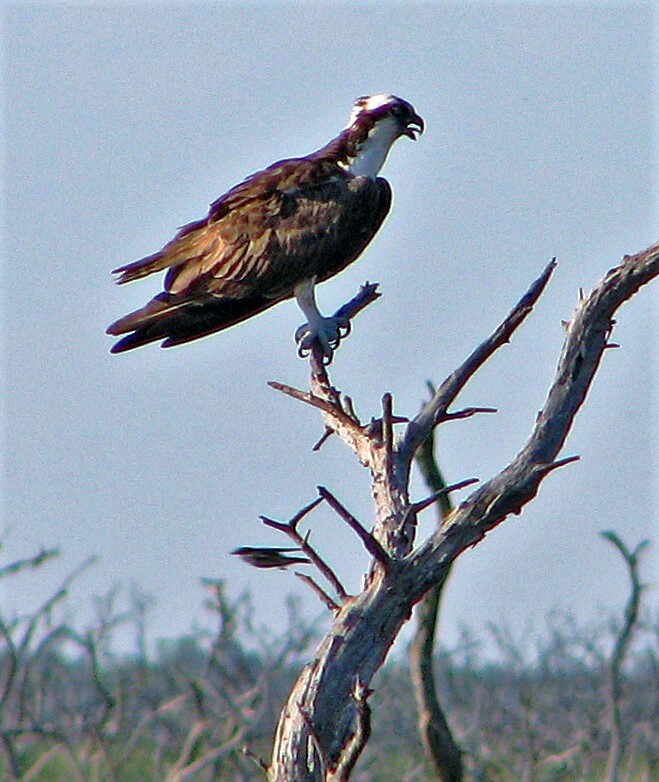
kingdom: Animalia
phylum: Chordata
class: Aves
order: Accipitriformes
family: Pandionidae
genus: Pandion
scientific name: Pandion haliaetus
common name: Osprey
